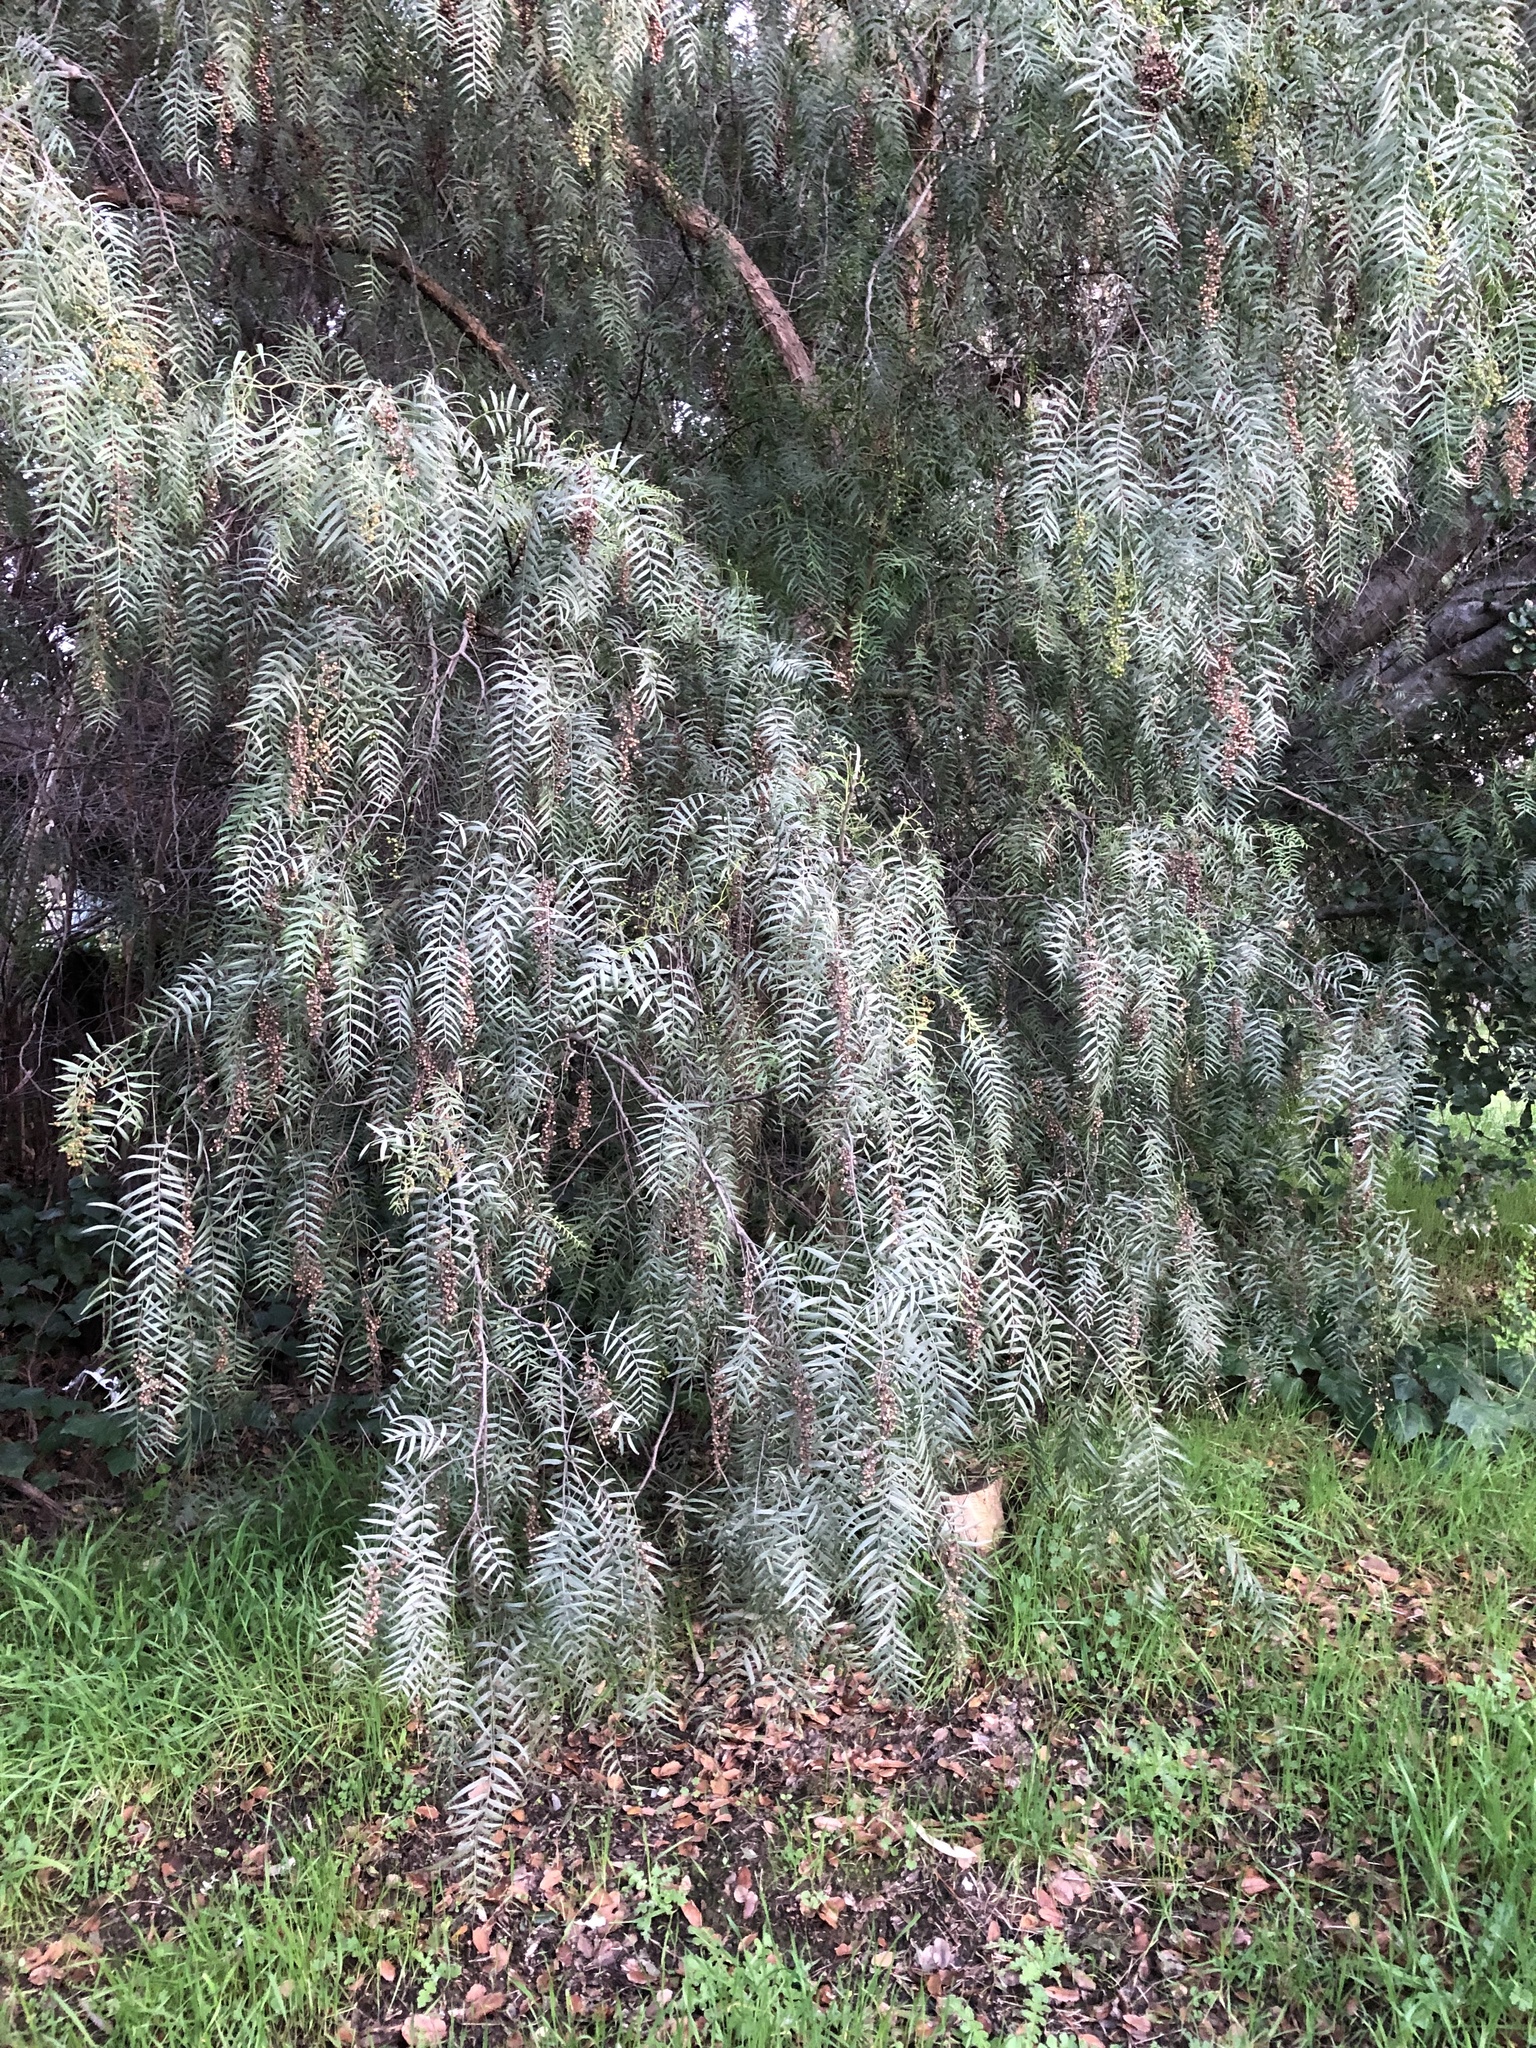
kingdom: Plantae
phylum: Tracheophyta
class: Magnoliopsida
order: Sapindales
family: Anacardiaceae
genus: Schinus
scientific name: Schinus molle
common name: Peruvian peppertree
